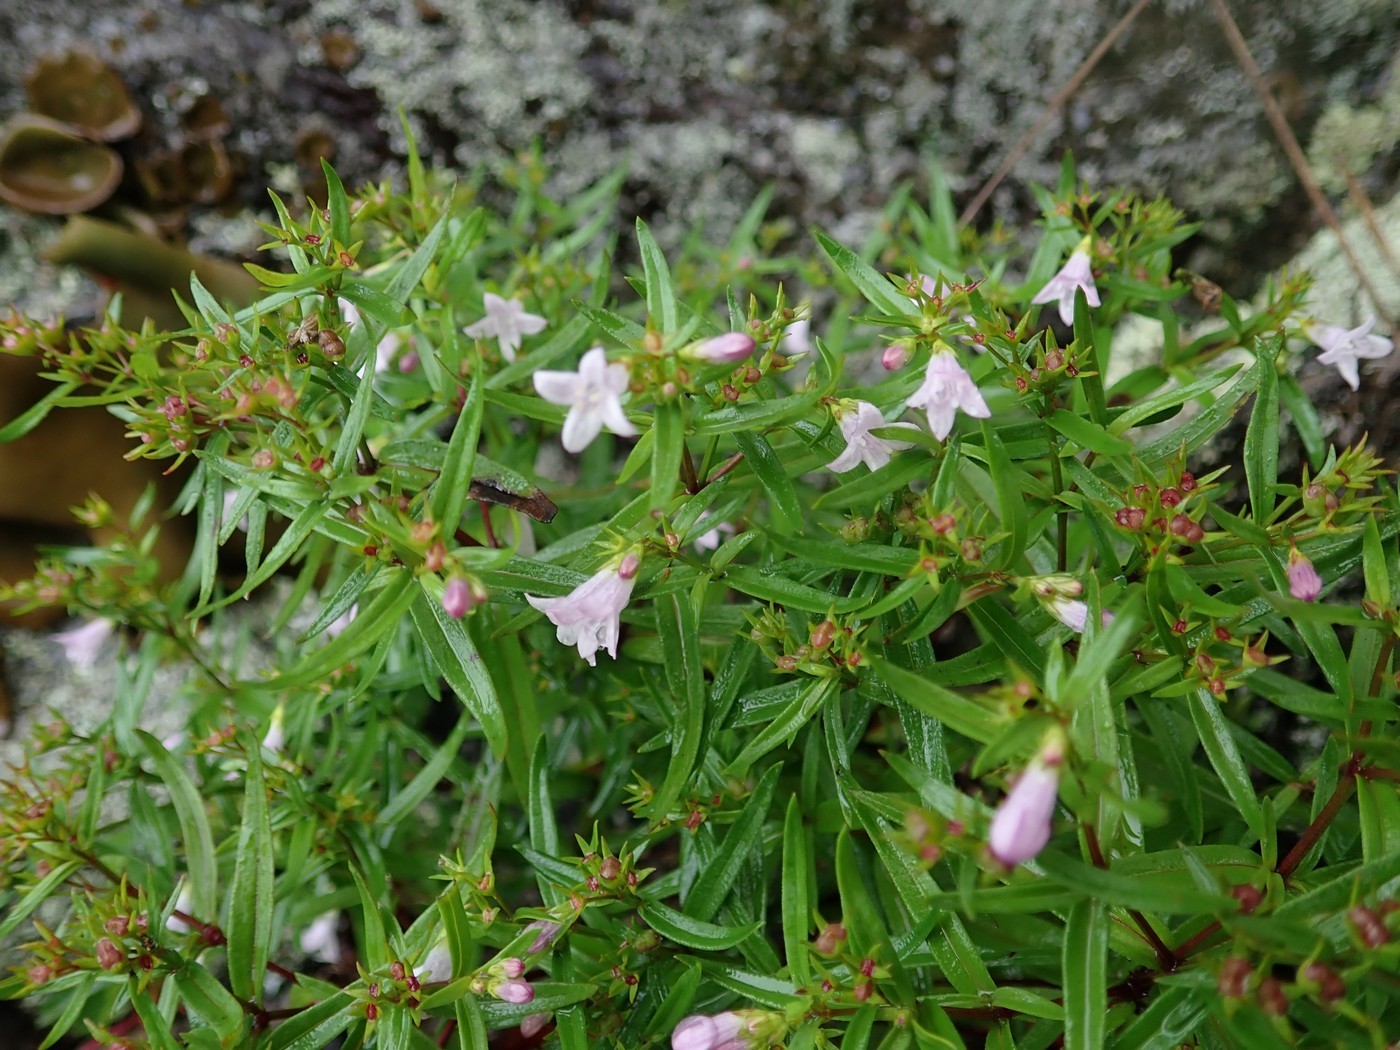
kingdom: Plantae
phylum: Tracheophyta
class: Magnoliopsida
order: Gentianales
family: Rubiaceae
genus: Houstonia
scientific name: Houstonia longifolia
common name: Long-leaved bluets
